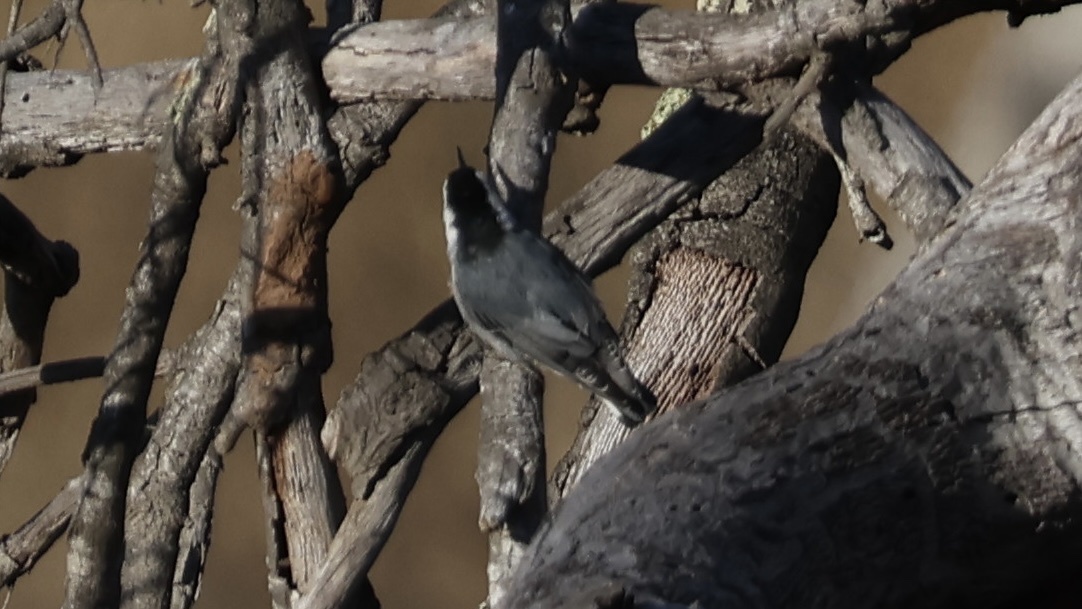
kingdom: Animalia
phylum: Chordata
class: Aves
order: Passeriformes
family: Sittidae
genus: Sitta
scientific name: Sitta carolinensis
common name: White-breasted nuthatch
